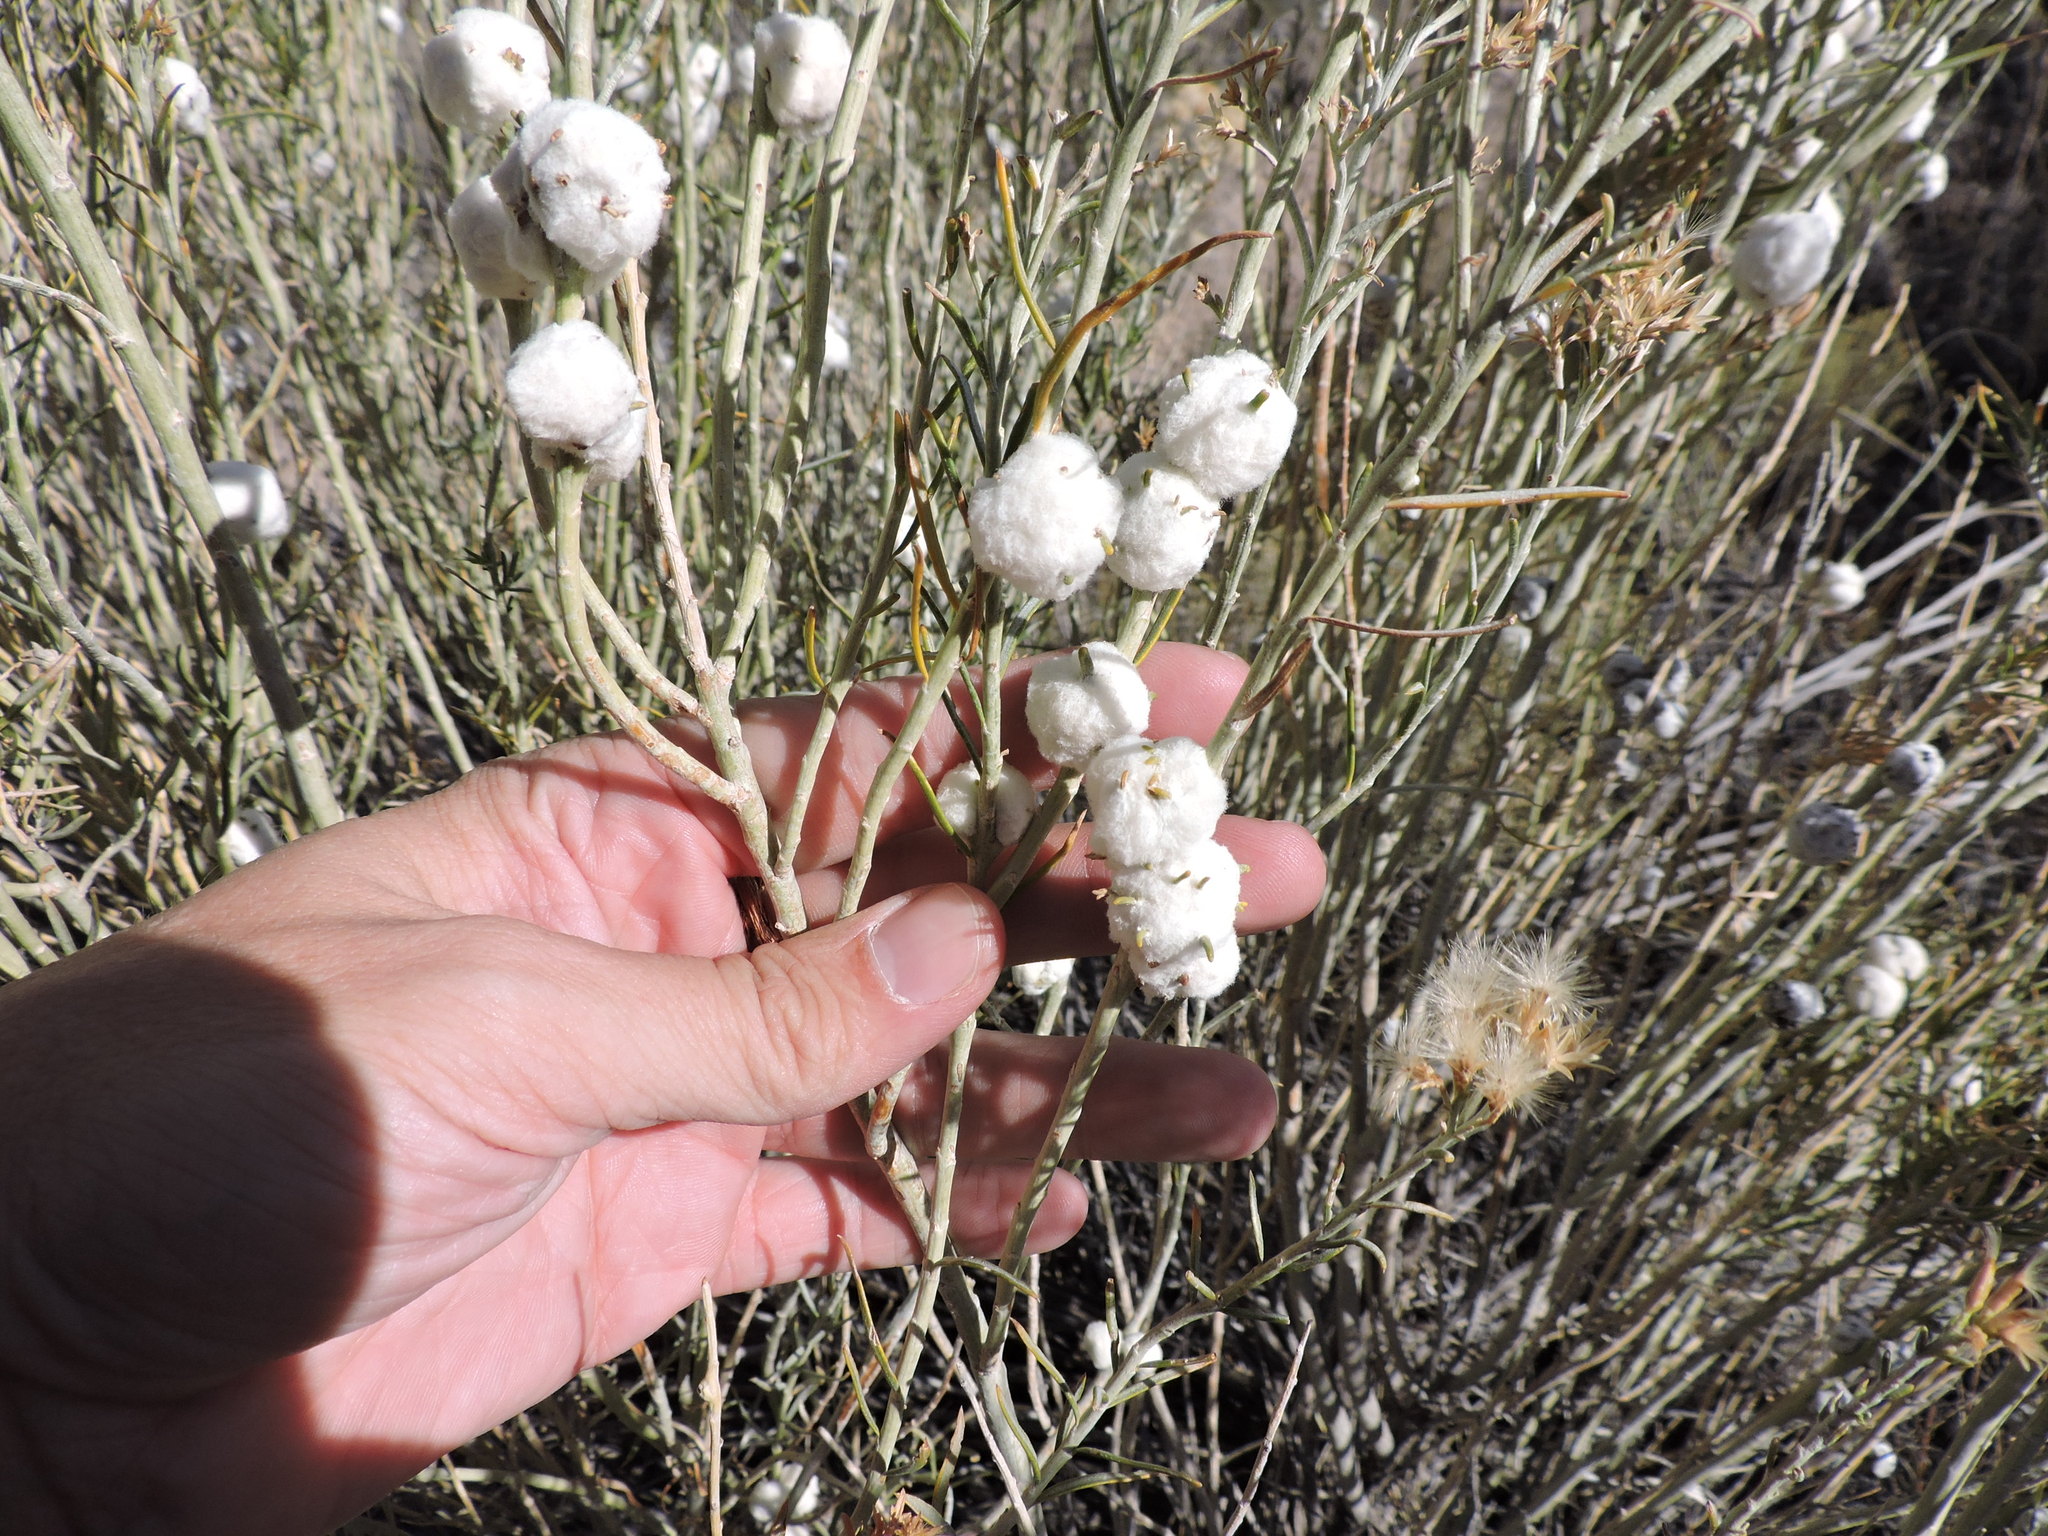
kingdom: Animalia
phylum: Arthropoda
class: Insecta
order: Diptera
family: Tephritidae
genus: Aciurina
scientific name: Aciurina bigeloviae
